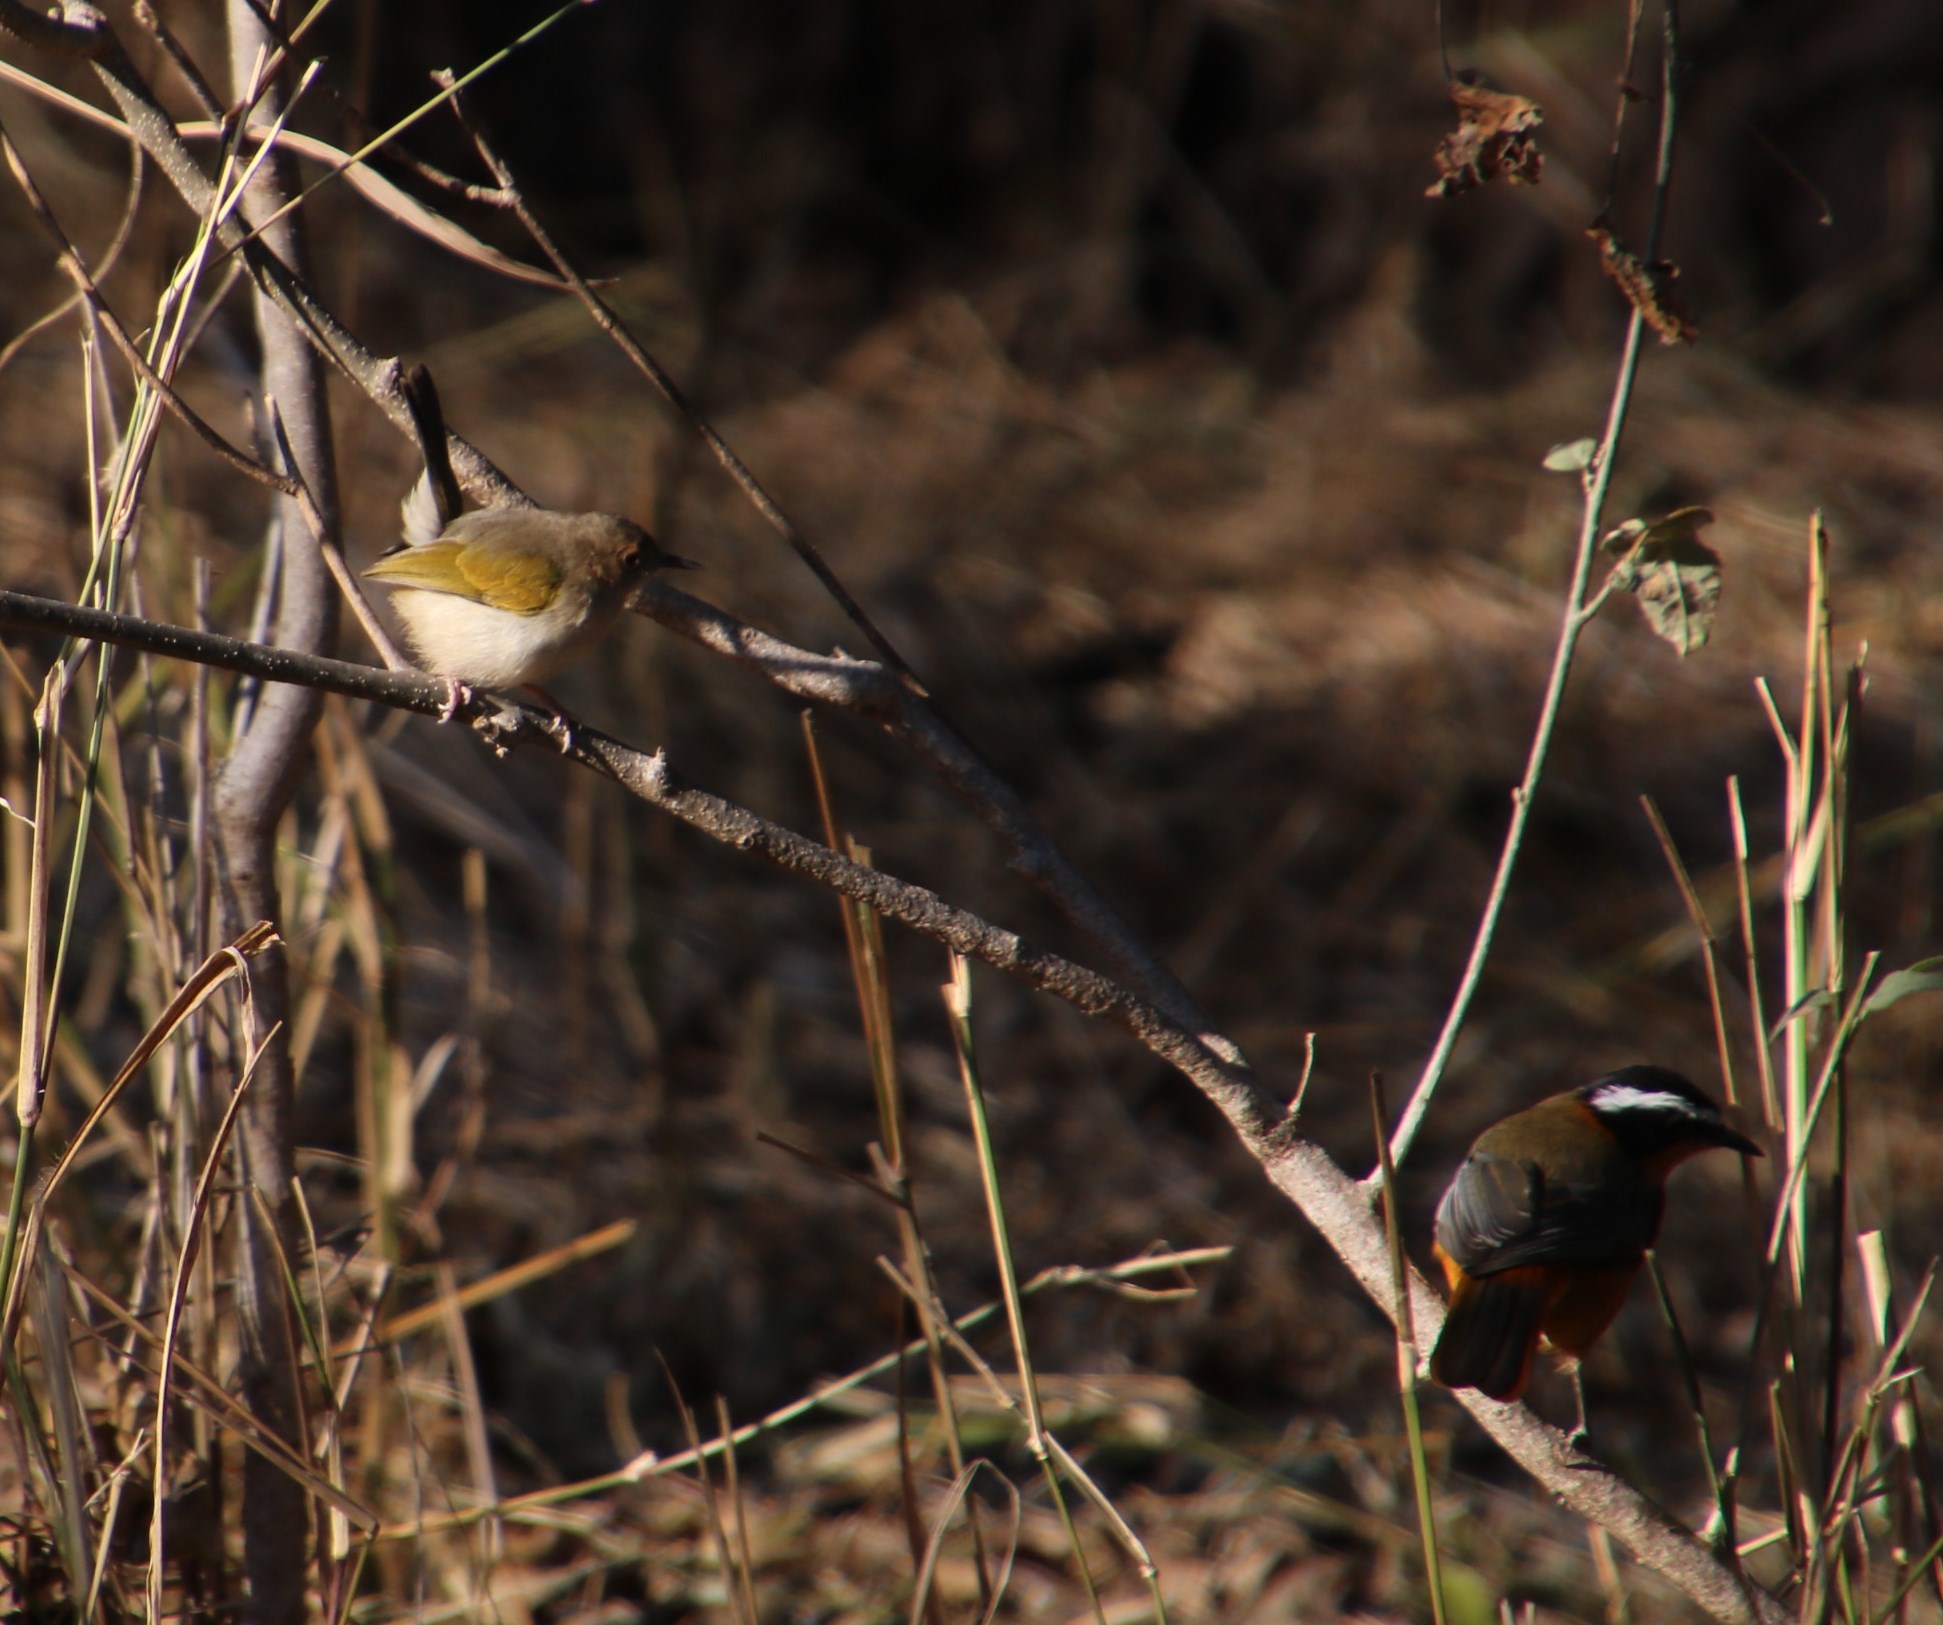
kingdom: Animalia
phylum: Chordata
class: Aves
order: Passeriformes
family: Cisticolidae
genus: Camaroptera
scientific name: Camaroptera brachyura
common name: Green-backed camaroptera
